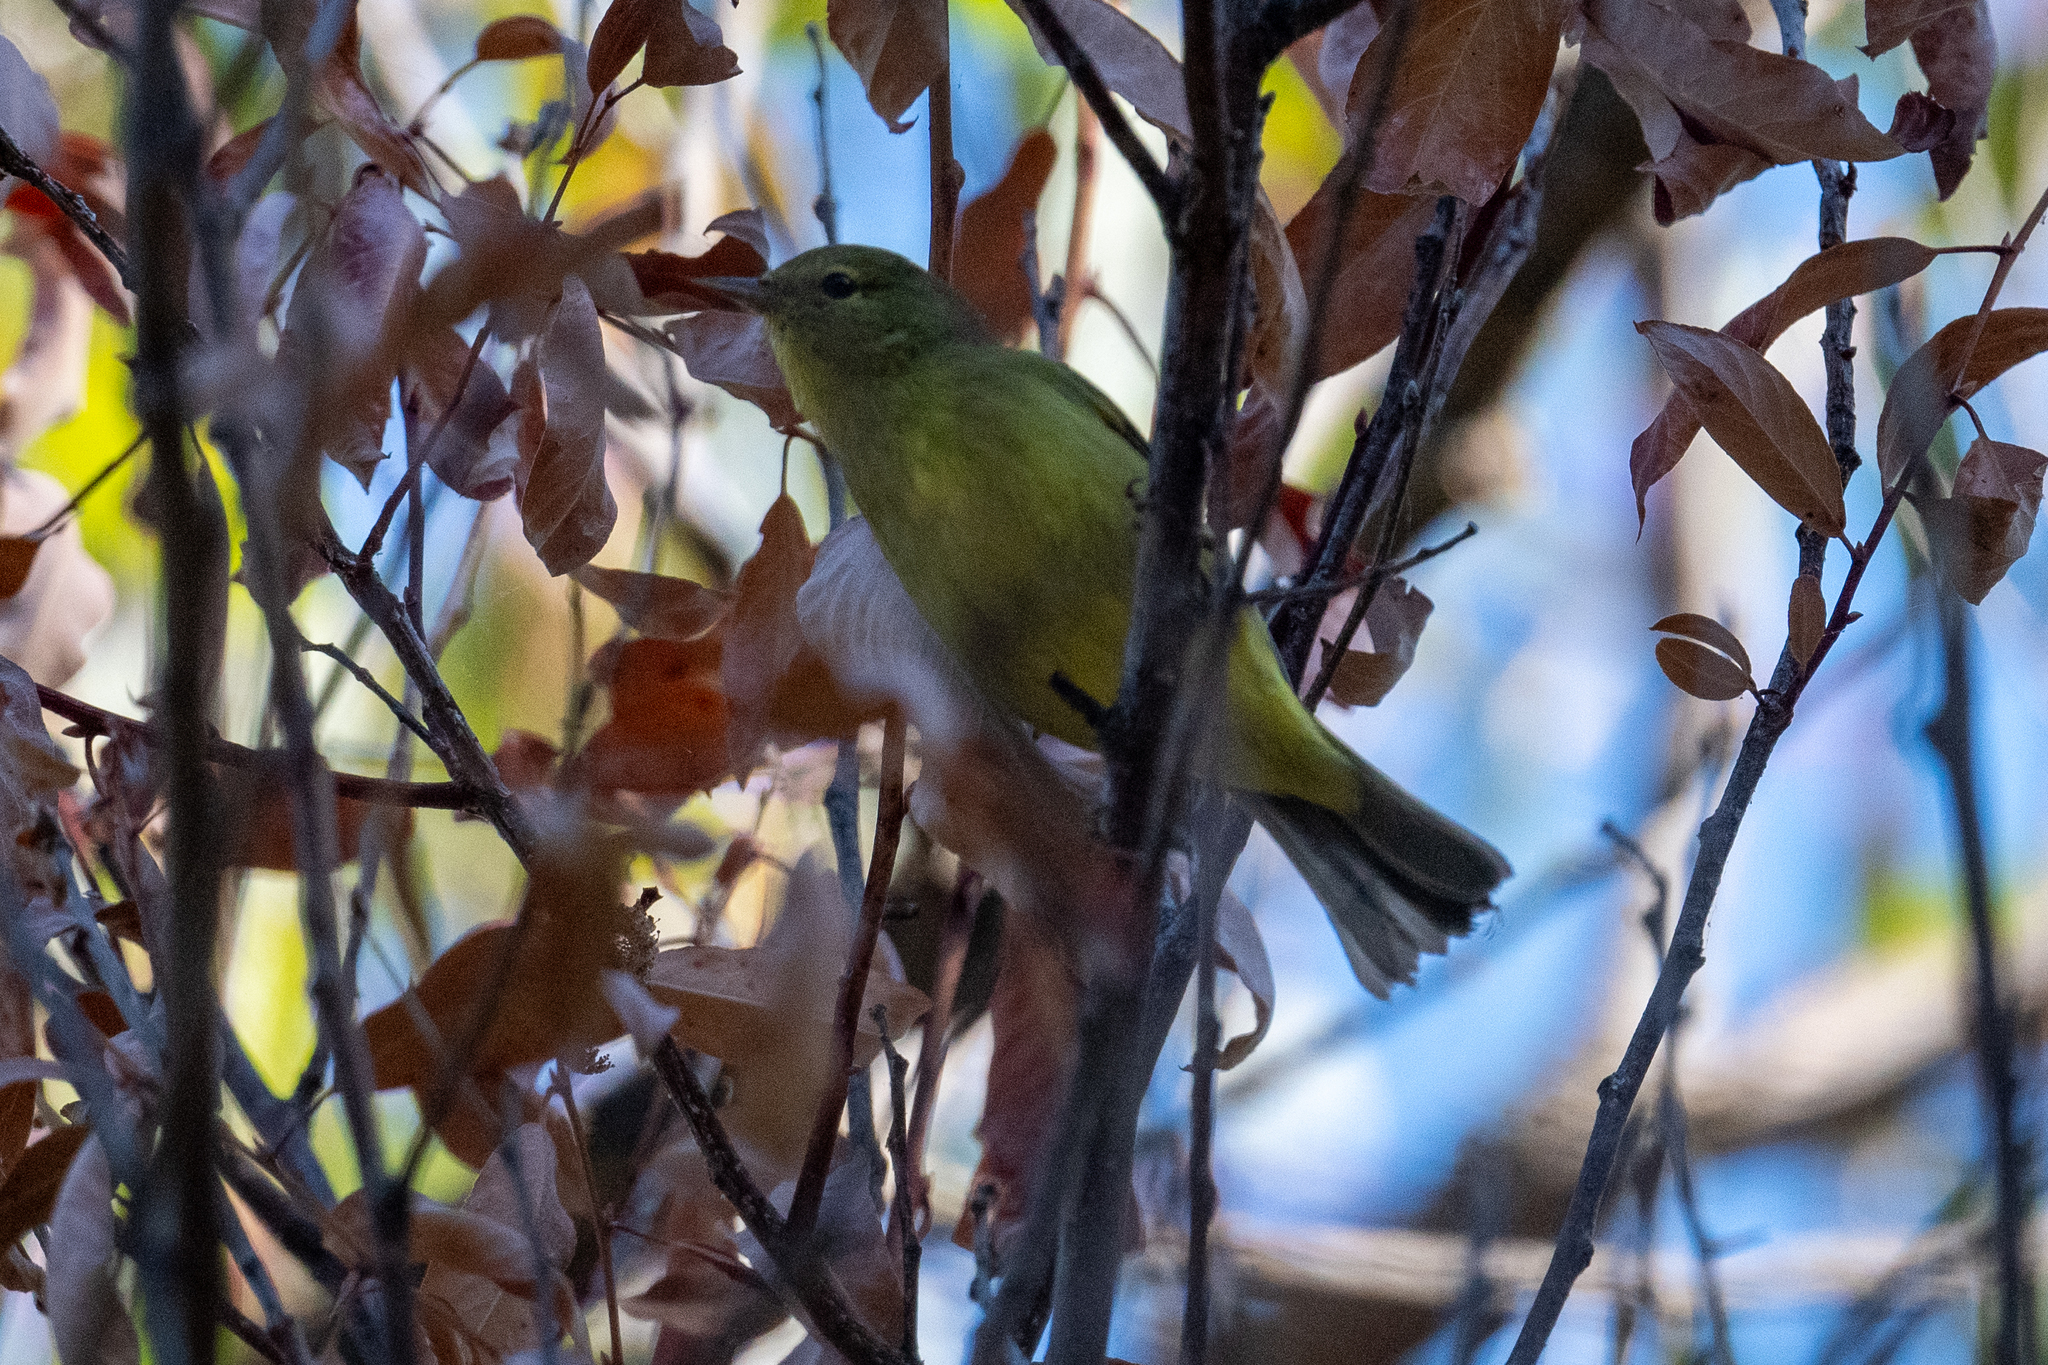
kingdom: Animalia
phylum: Chordata
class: Aves
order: Passeriformes
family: Parulidae
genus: Leiothlypis
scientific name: Leiothlypis celata
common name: Orange-crowned warbler
